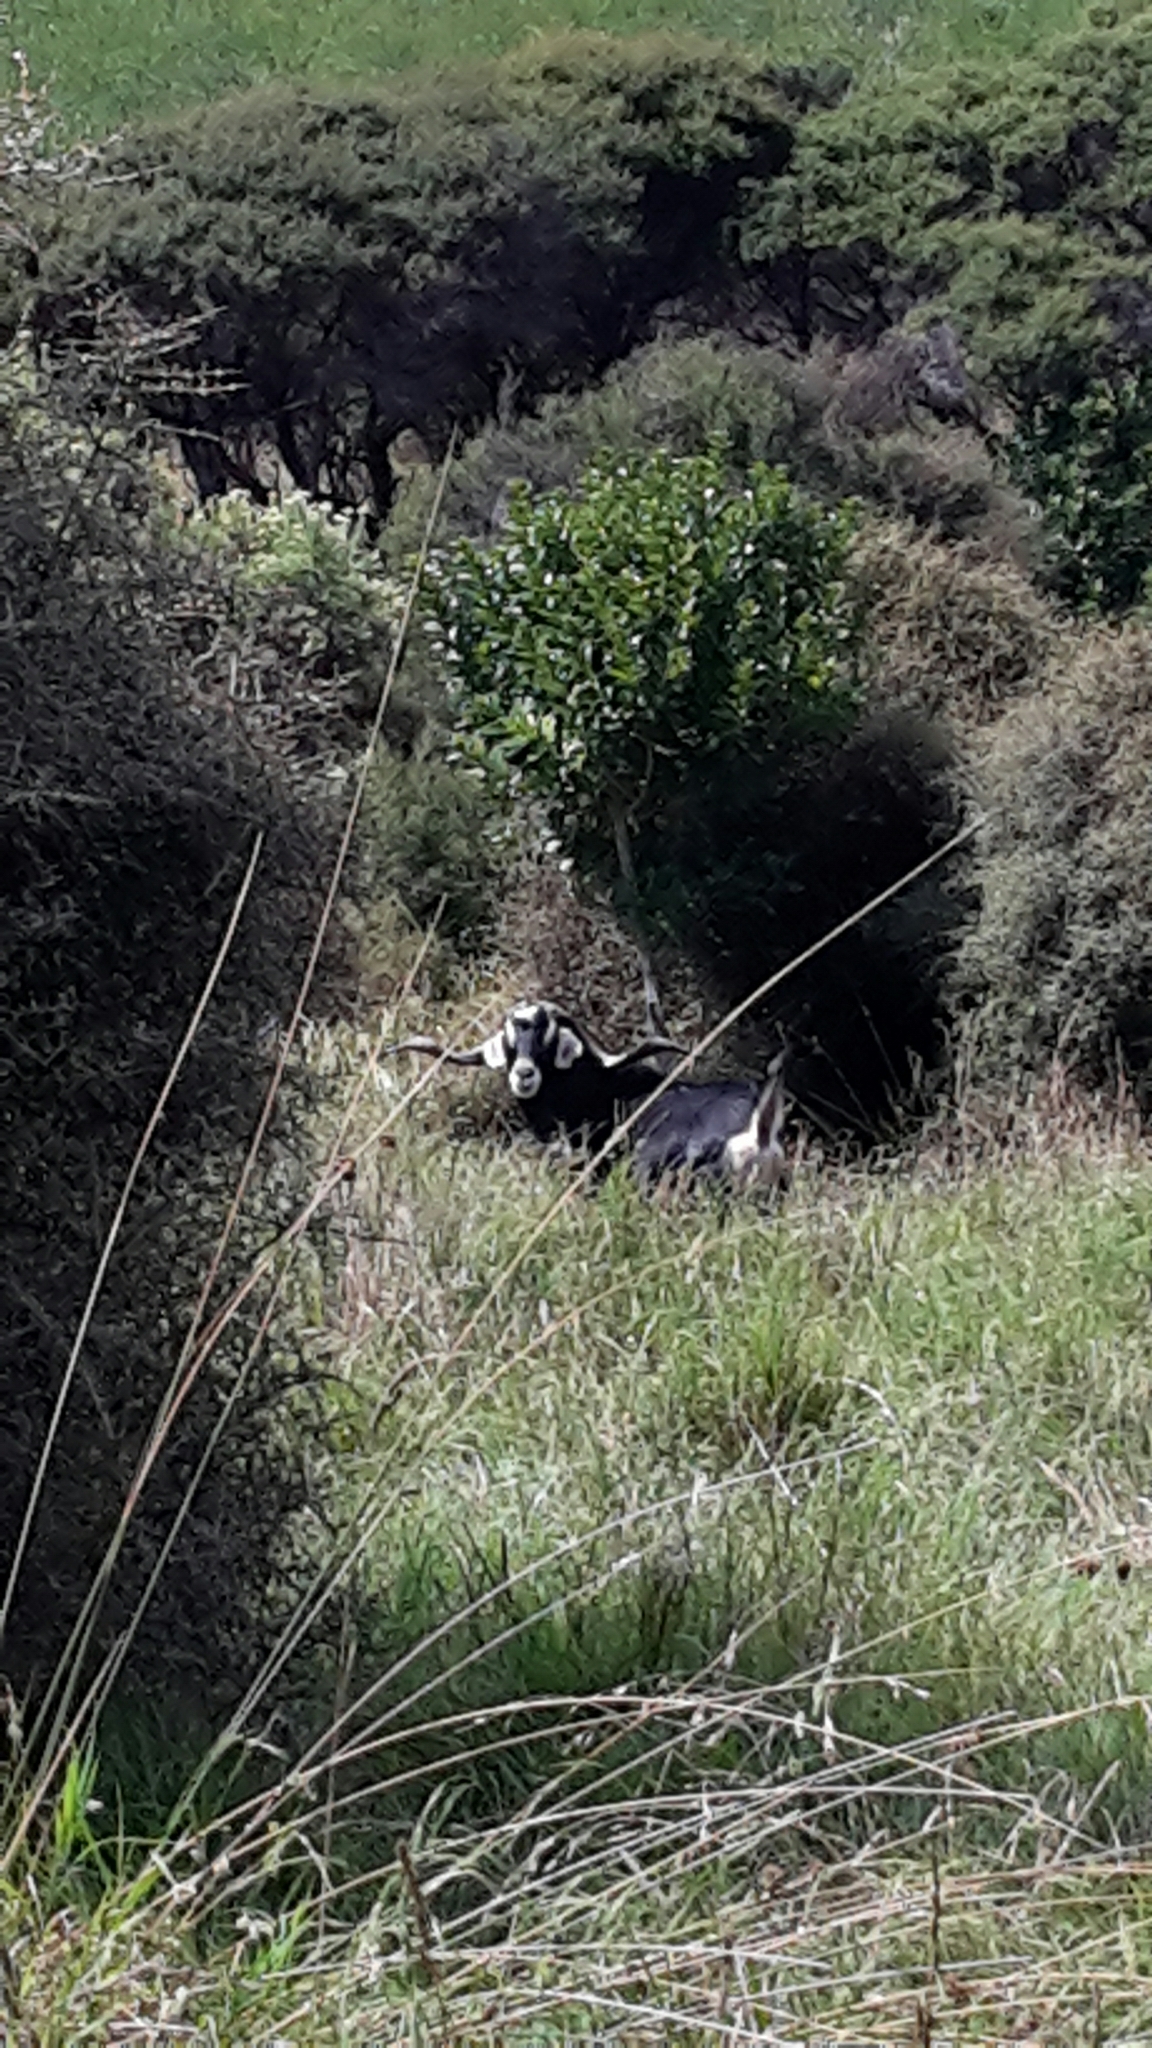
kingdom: Animalia
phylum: Chordata
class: Mammalia
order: Artiodactyla
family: Bovidae
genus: Capra
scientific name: Capra hircus
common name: Domestic goat
